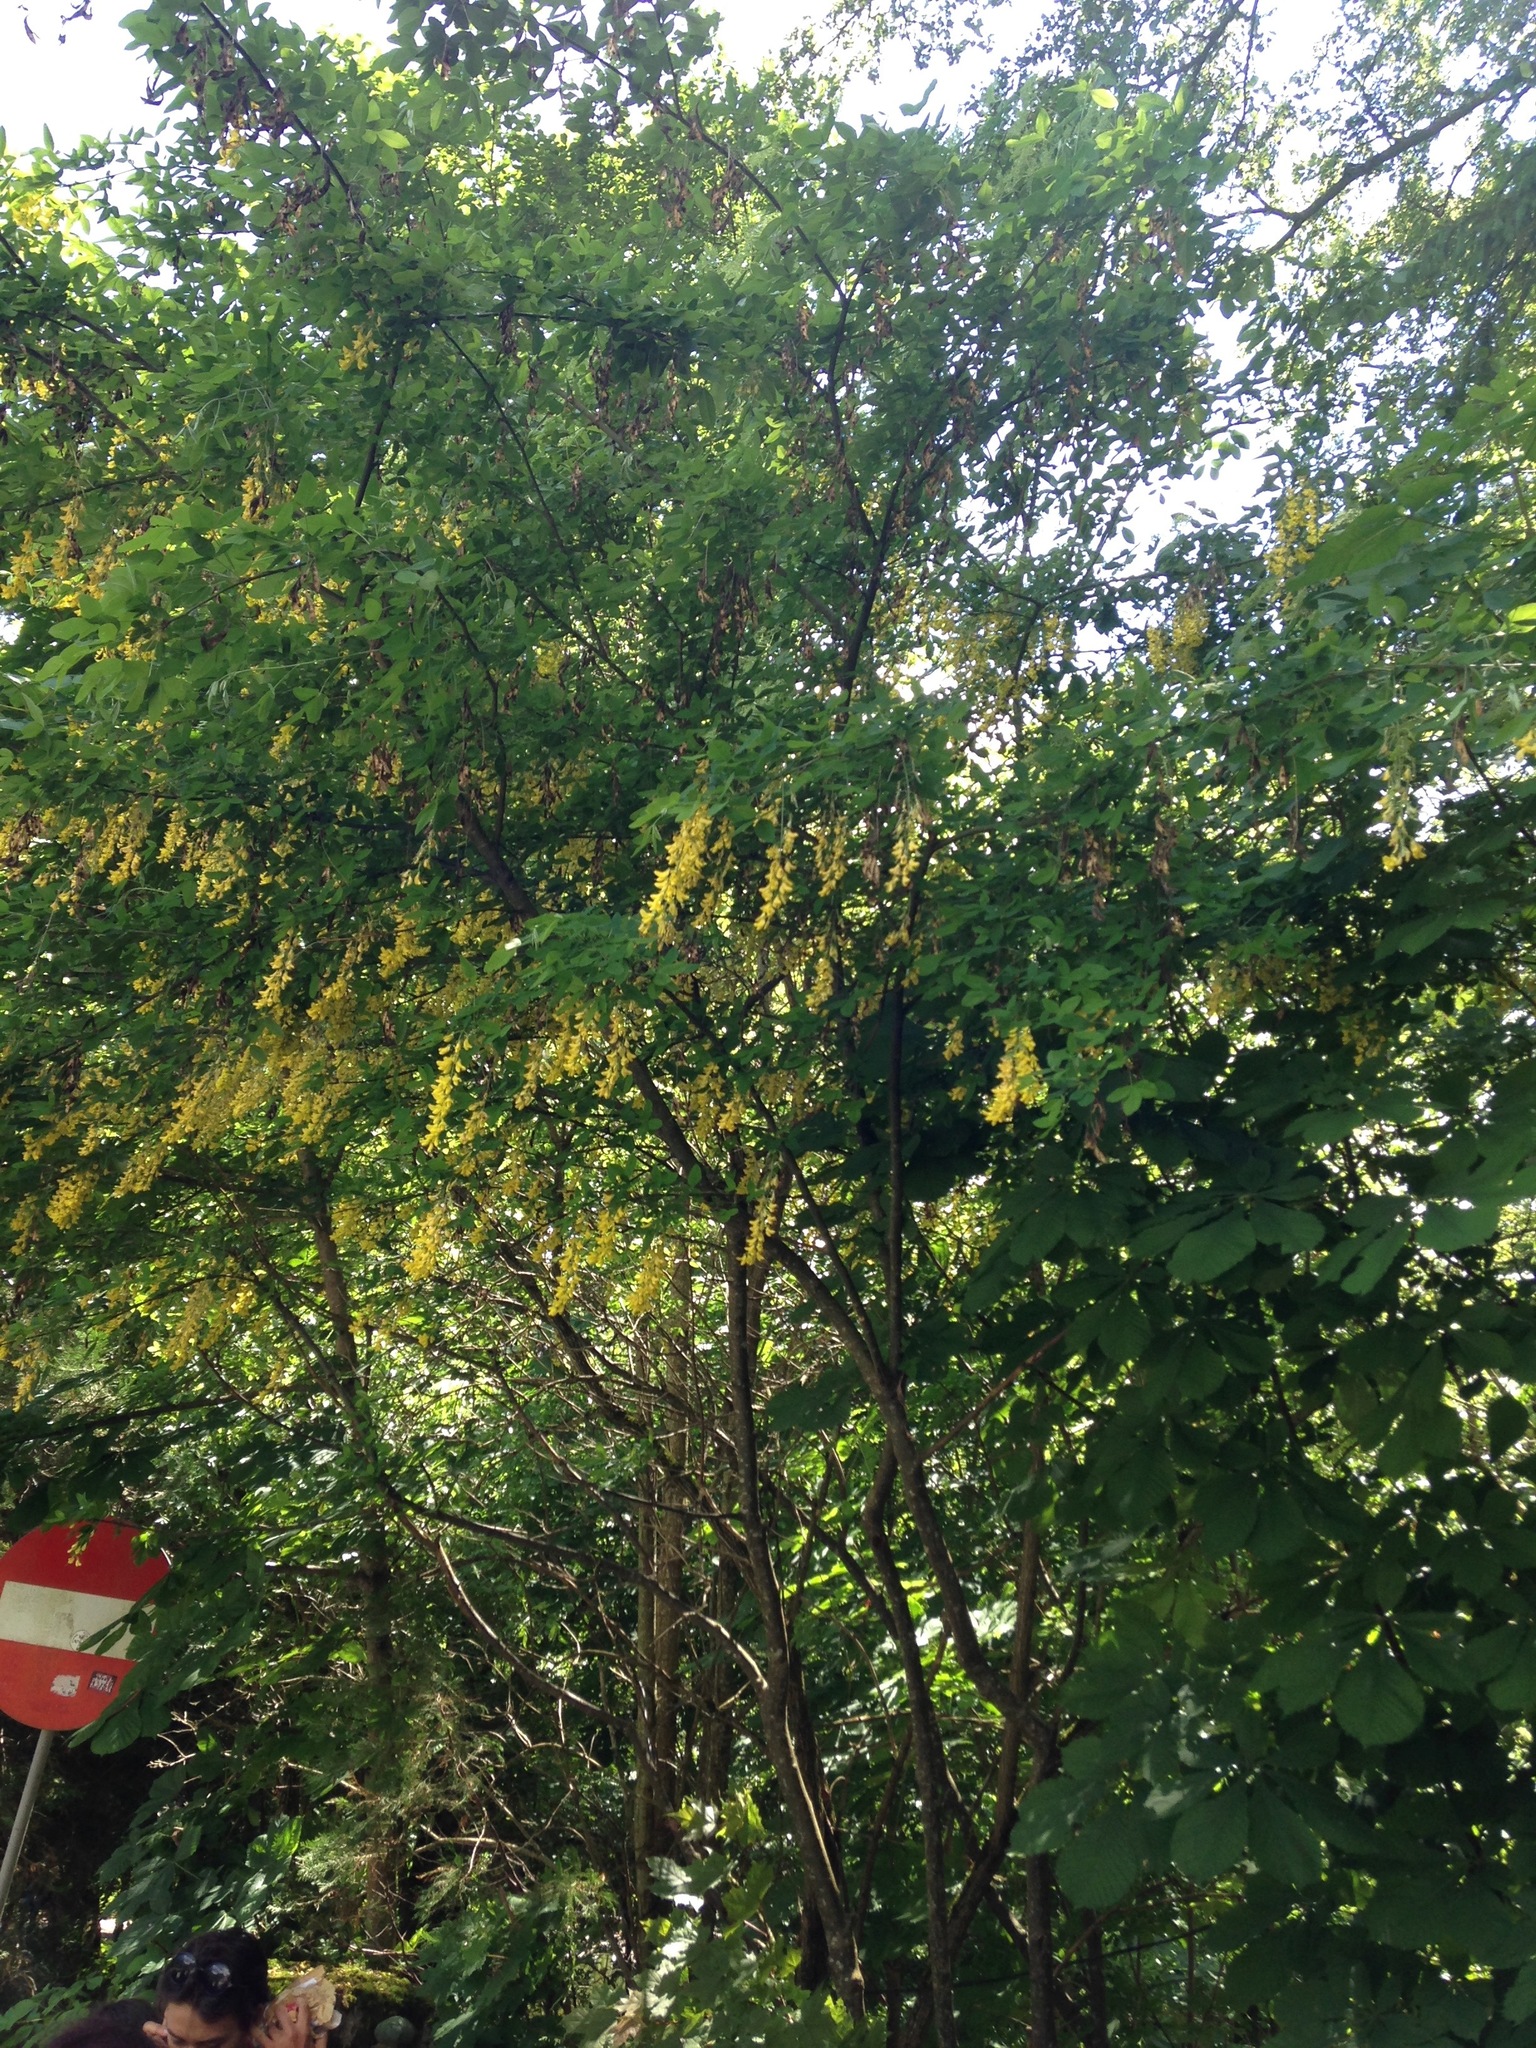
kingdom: Plantae
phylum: Tracheophyta
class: Magnoliopsida
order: Fabales
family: Fabaceae
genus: Laburnum
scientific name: Laburnum anagyroides
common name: Laburnum
